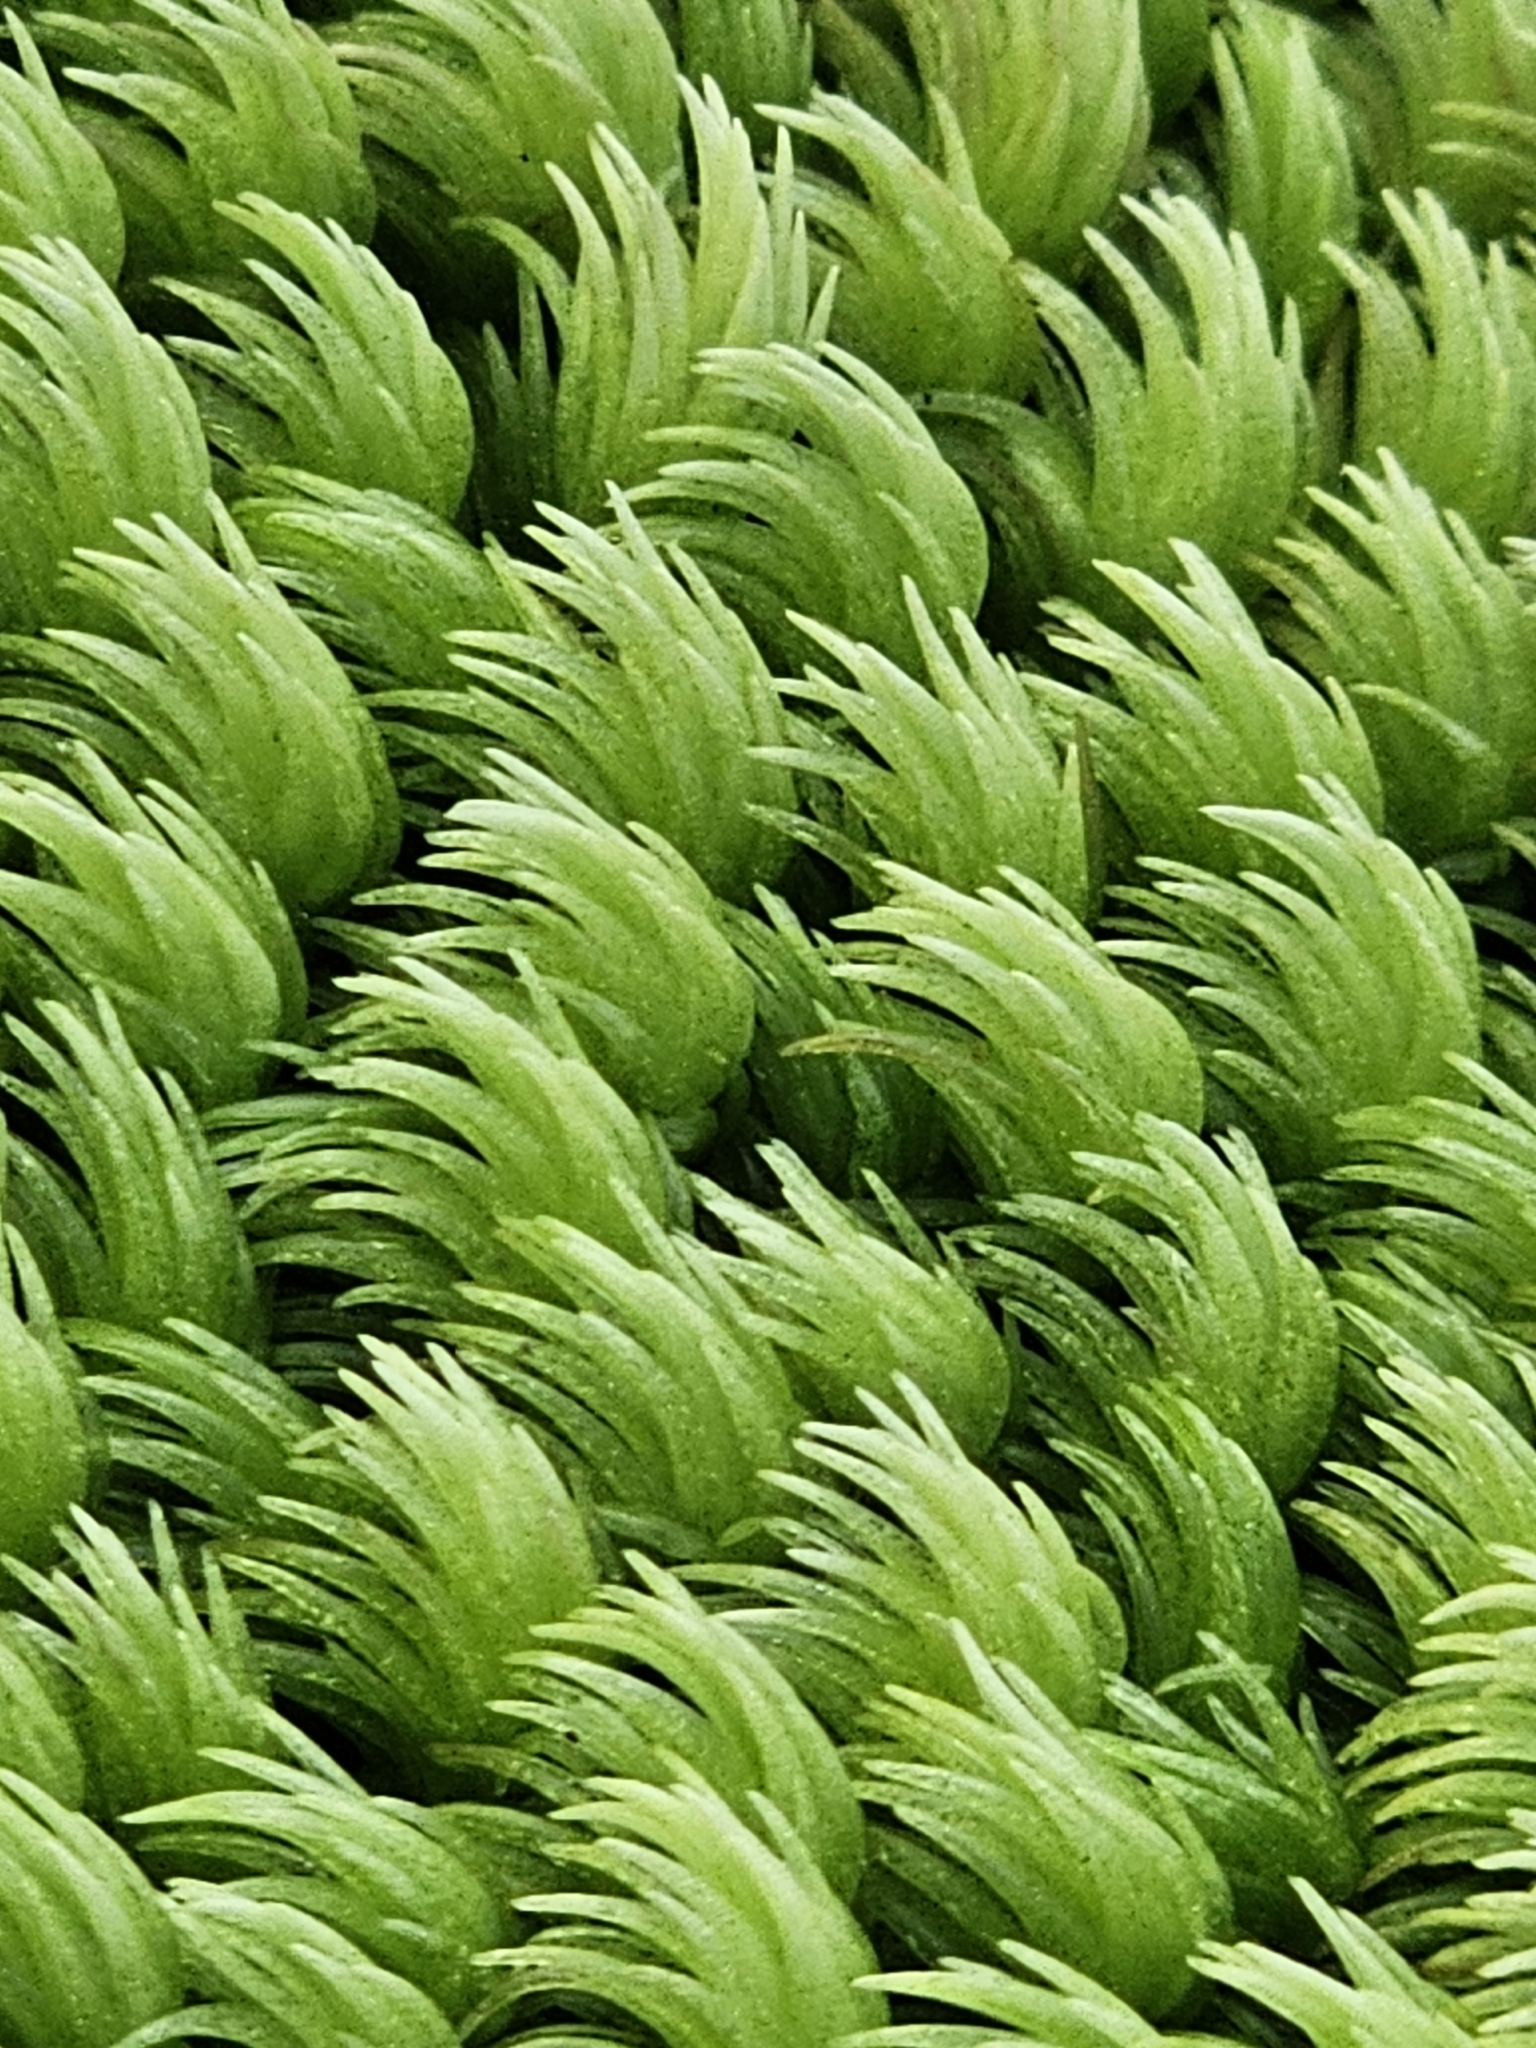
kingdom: Plantae
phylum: Bryophyta
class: Bryopsida
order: Dicranales
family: Leucobryaceae
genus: Leucobryum
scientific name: Leucobryum javense
